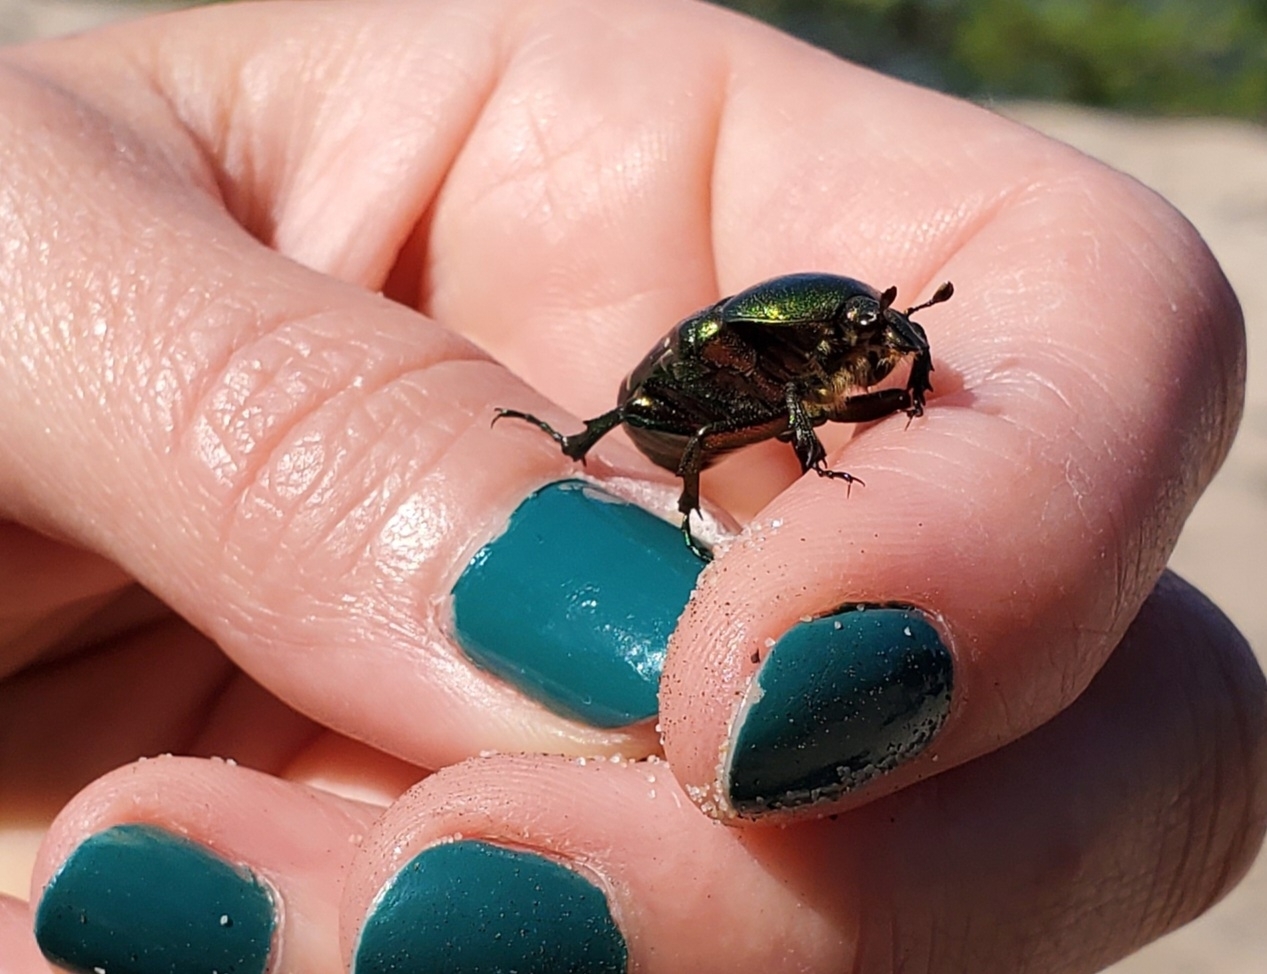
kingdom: Animalia
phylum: Arthropoda
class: Insecta
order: Coleoptera
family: Scarabaeidae
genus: Cetonia
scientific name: Cetonia aurata
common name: Rose chafer
